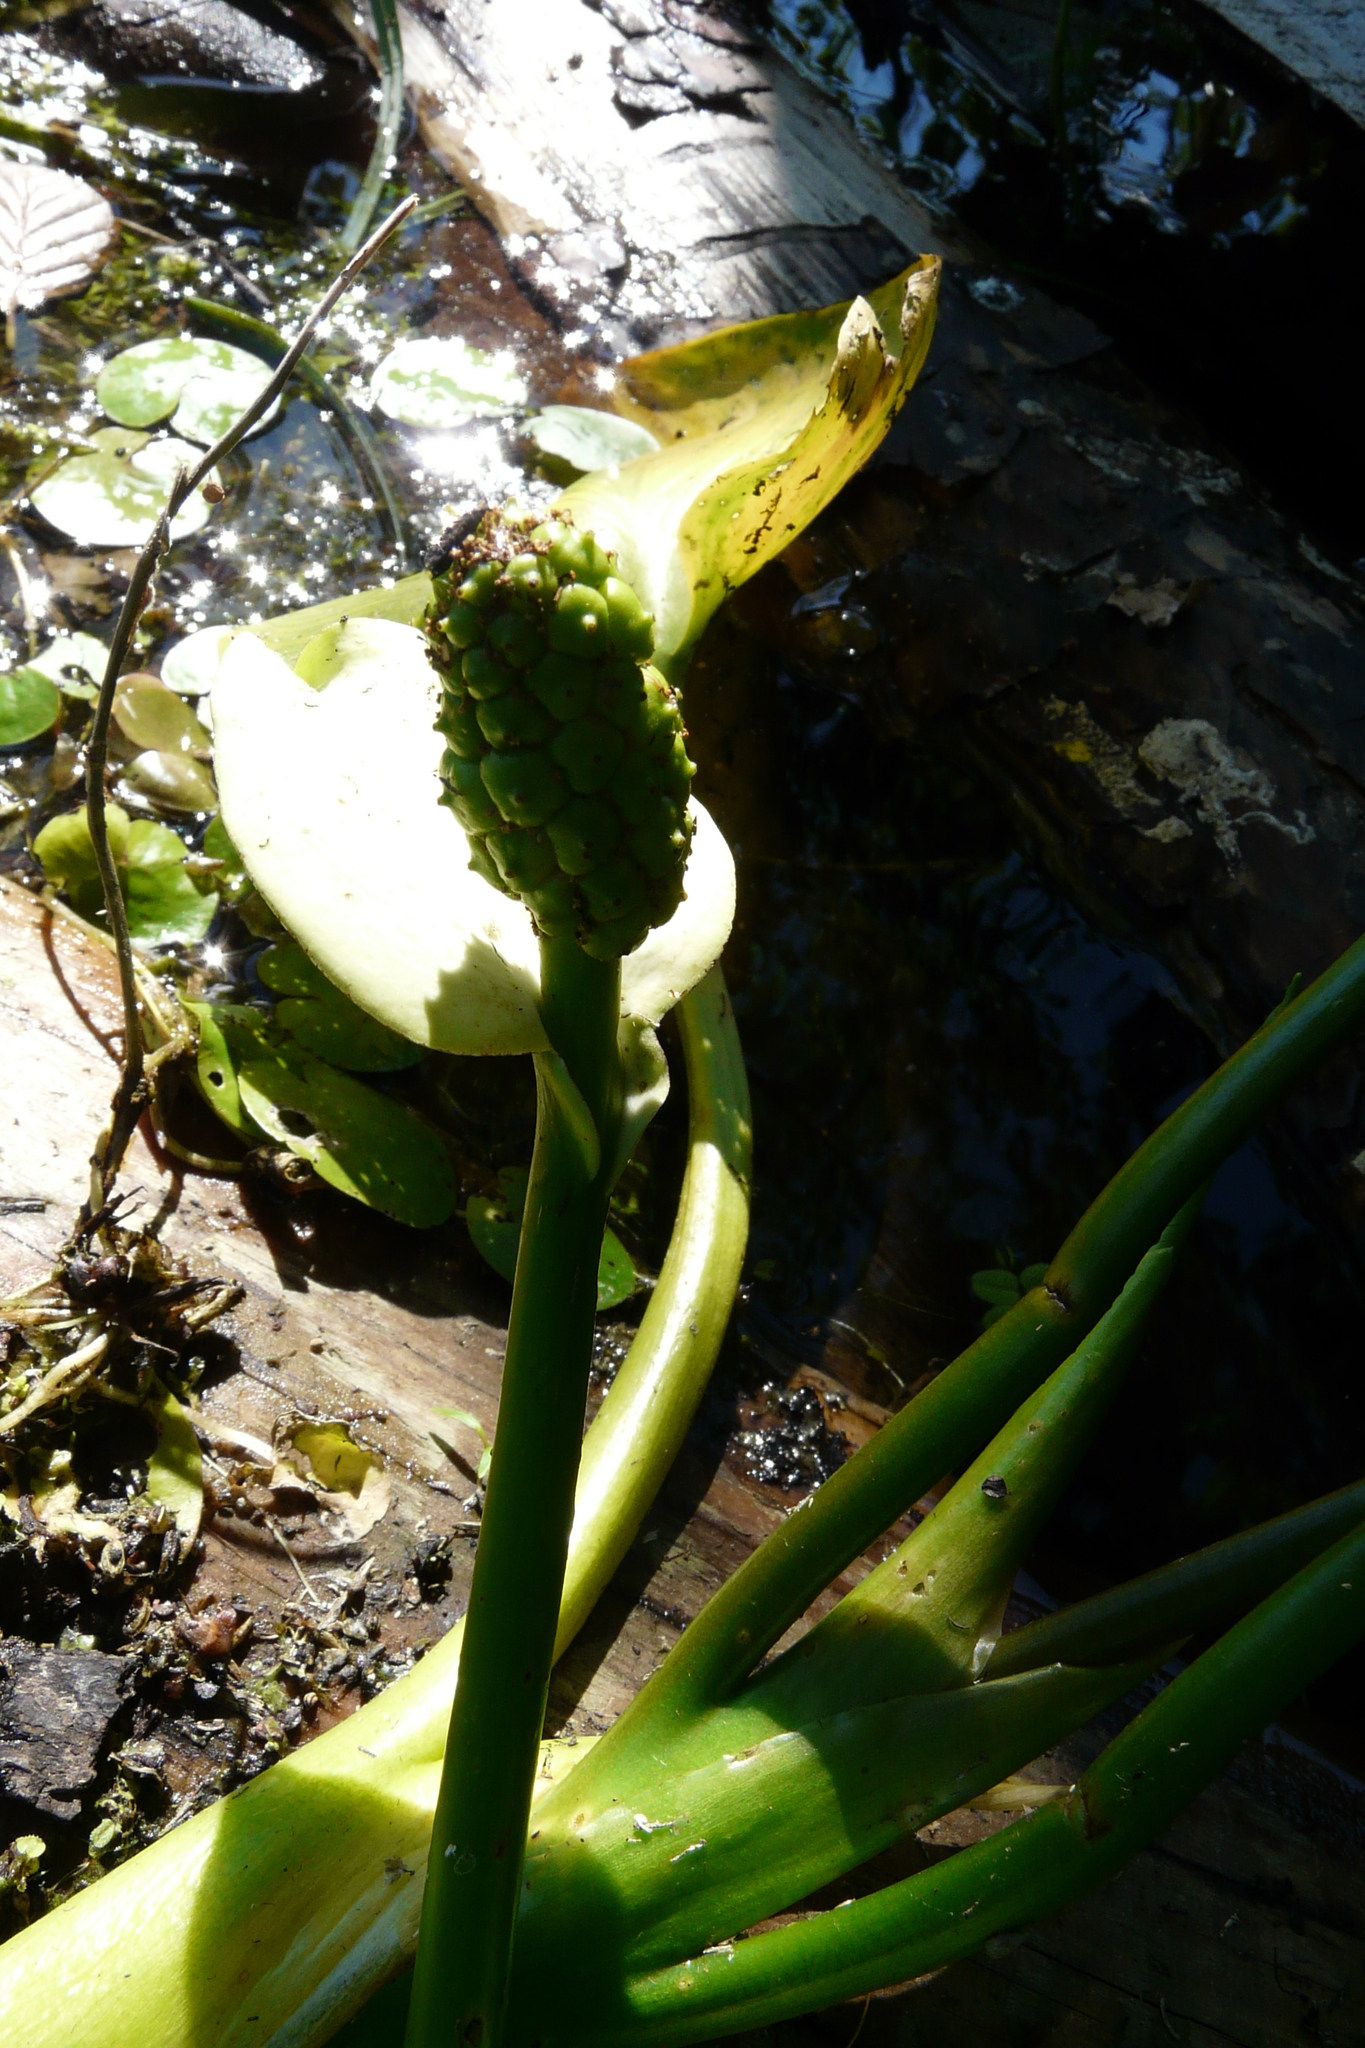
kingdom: Plantae
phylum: Tracheophyta
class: Liliopsida
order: Alismatales
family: Araceae
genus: Calla
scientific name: Calla palustris
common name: Bog arum
